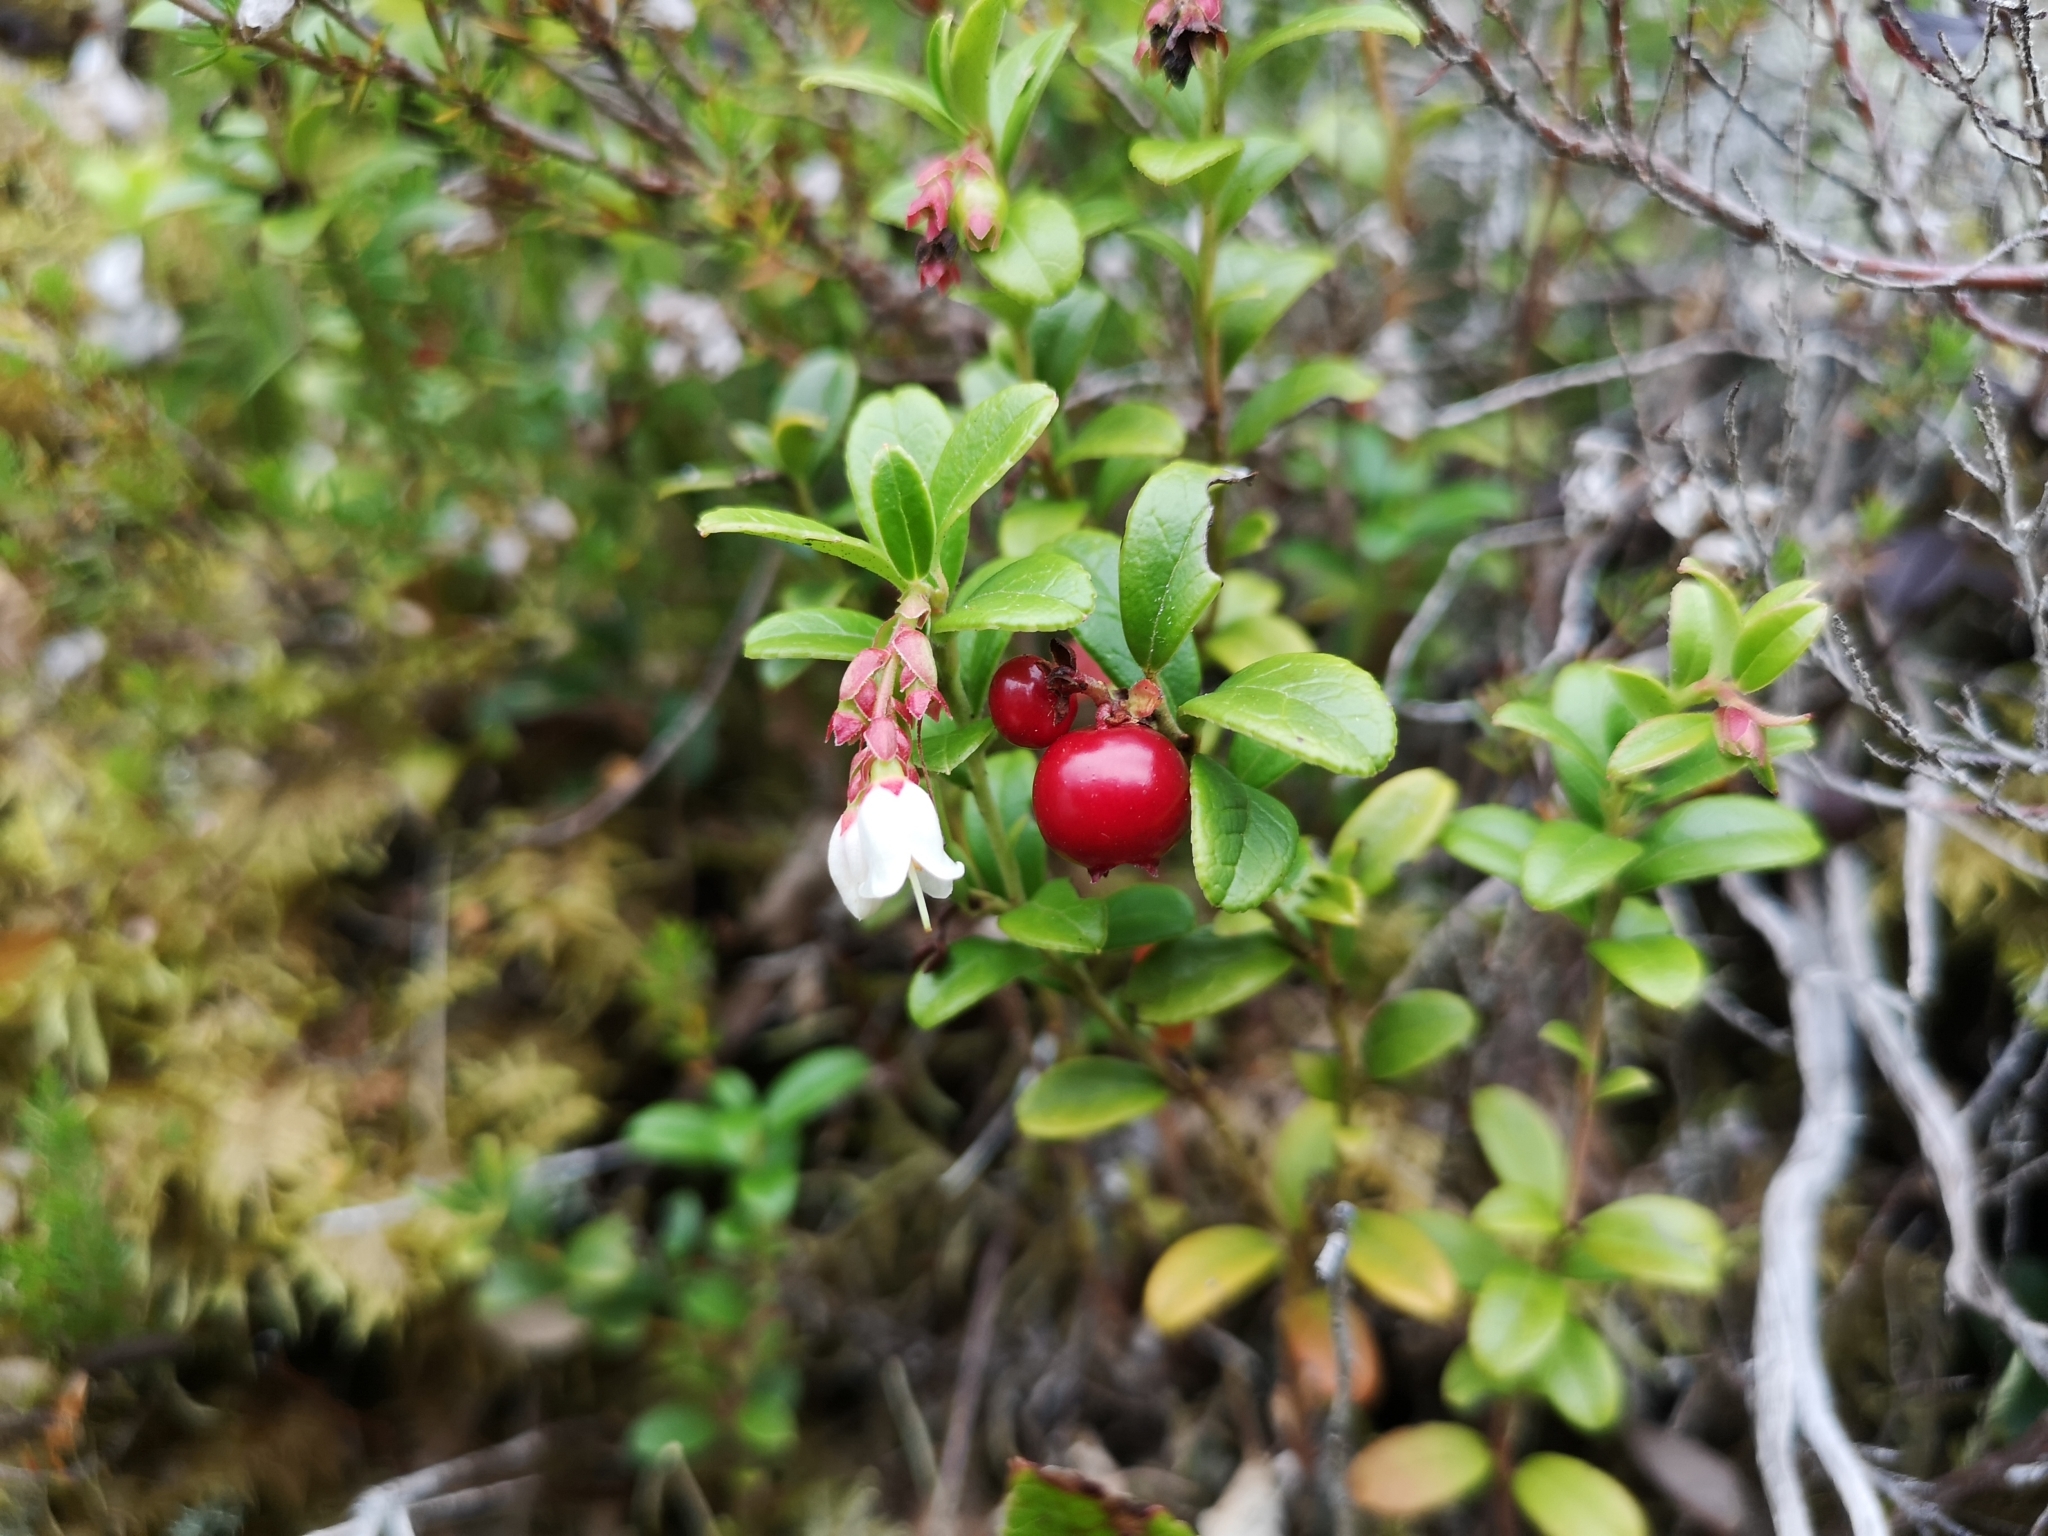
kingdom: Plantae
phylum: Tracheophyta
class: Magnoliopsida
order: Ericales
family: Ericaceae
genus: Vaccinium
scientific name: Vaccinium vitis-idaea
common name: Cowberry
